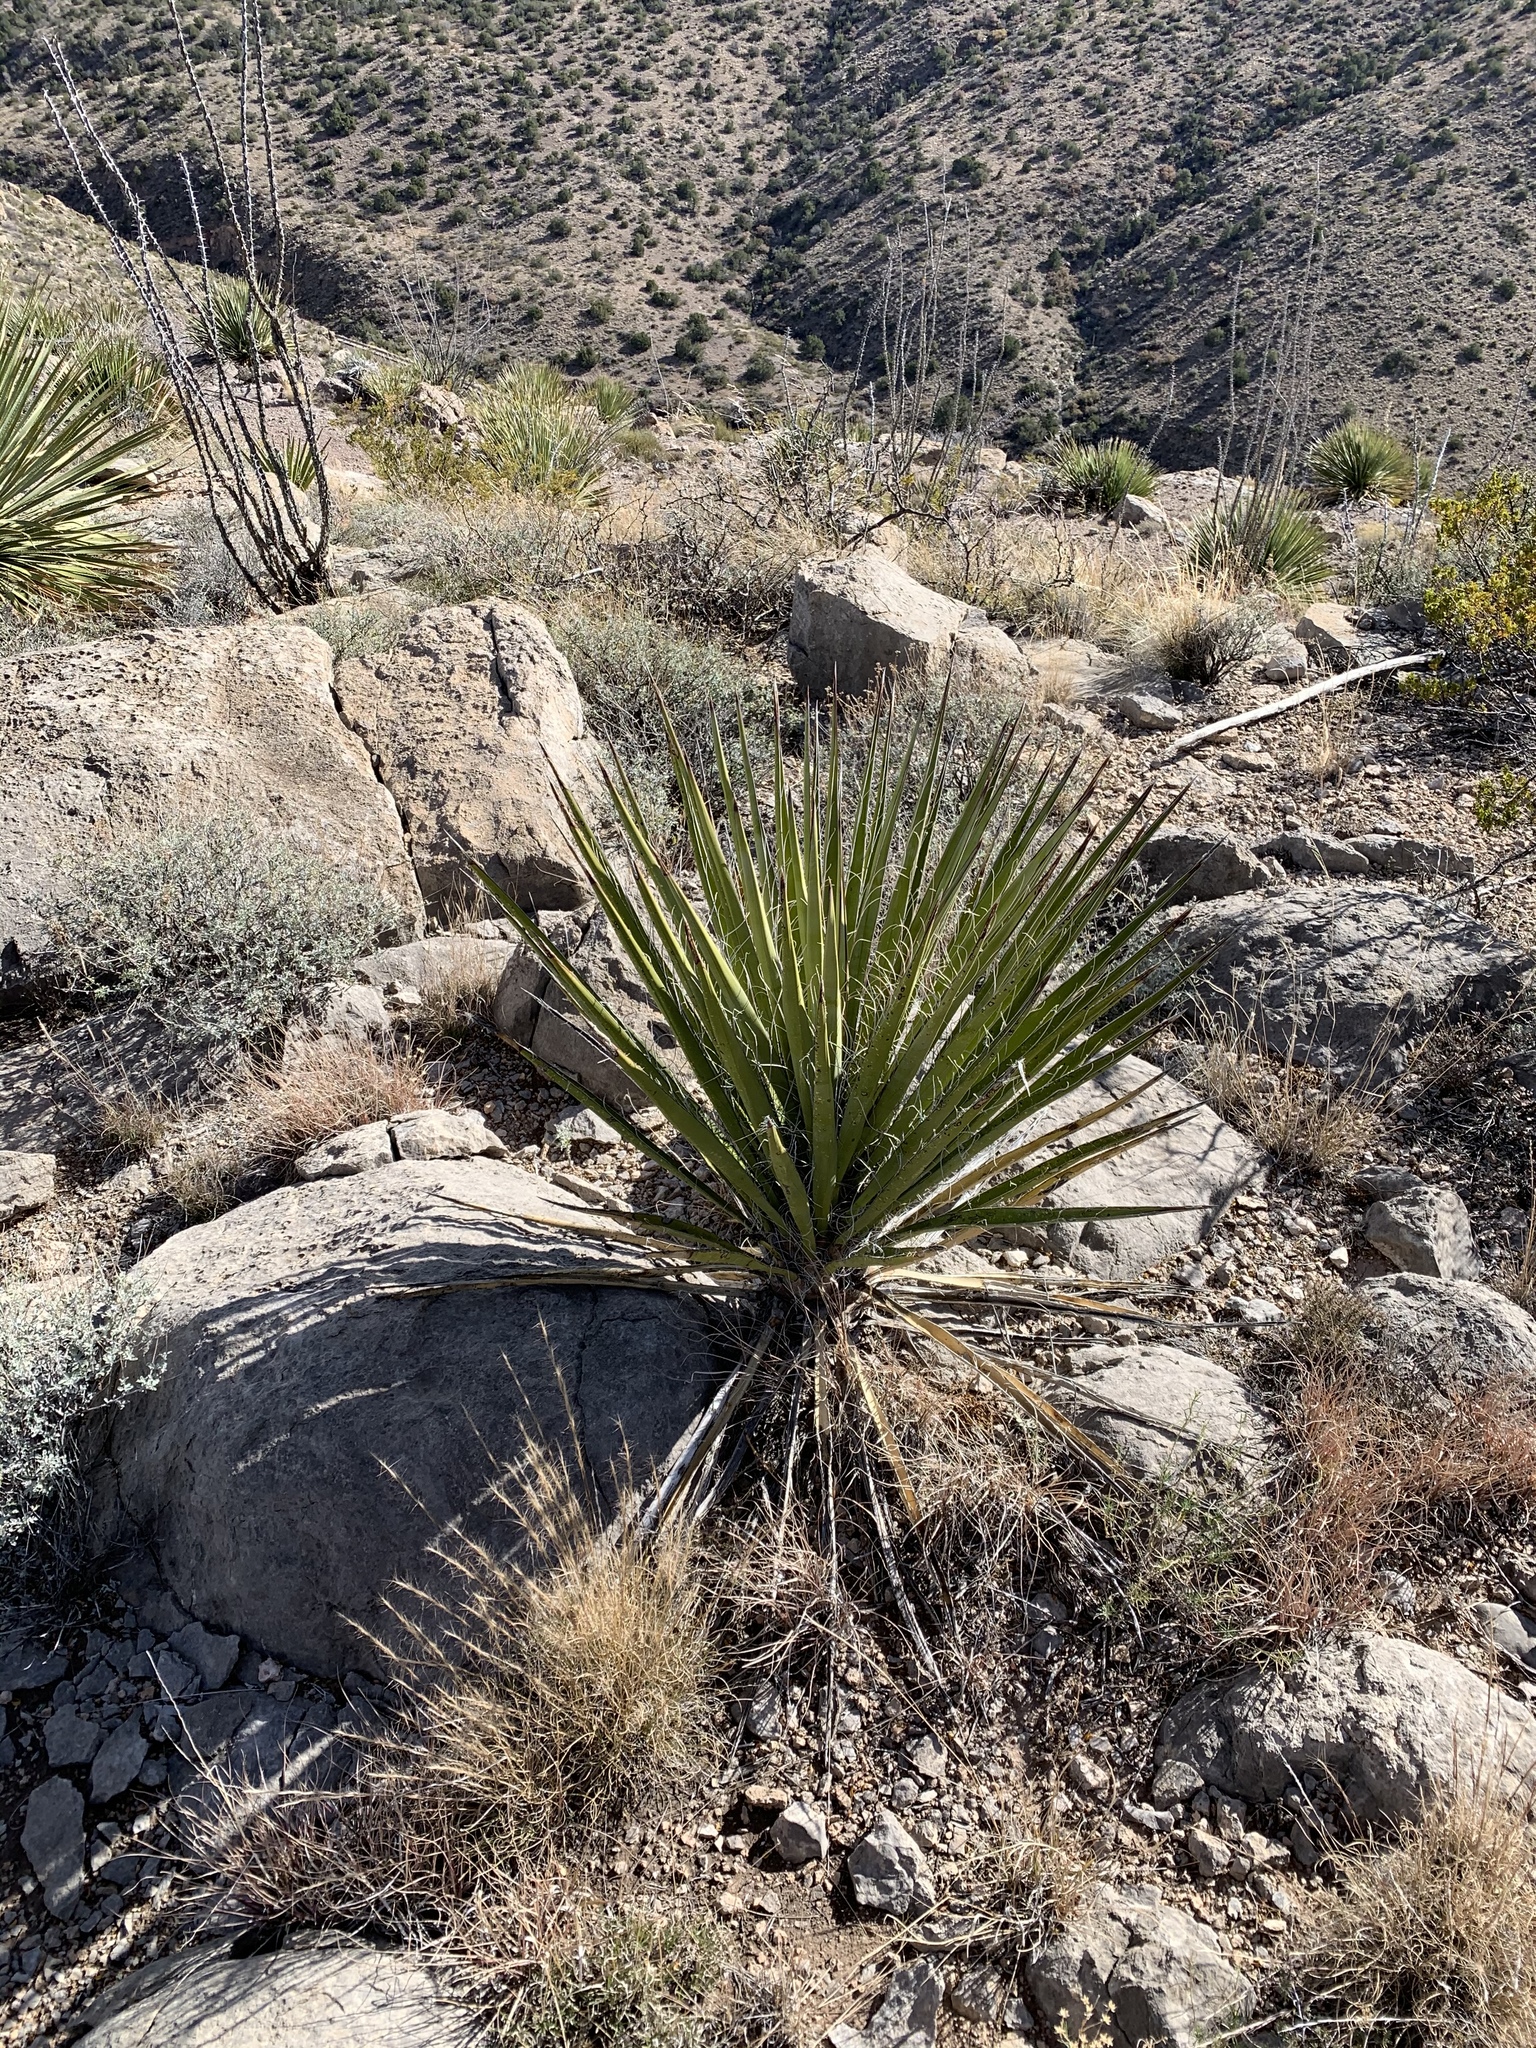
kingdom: Plantae
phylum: Tracheophyta
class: Liliopsida
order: Asparagales
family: Asparagaceae
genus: Yucca
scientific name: Yucca baccata
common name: Banana yucca
